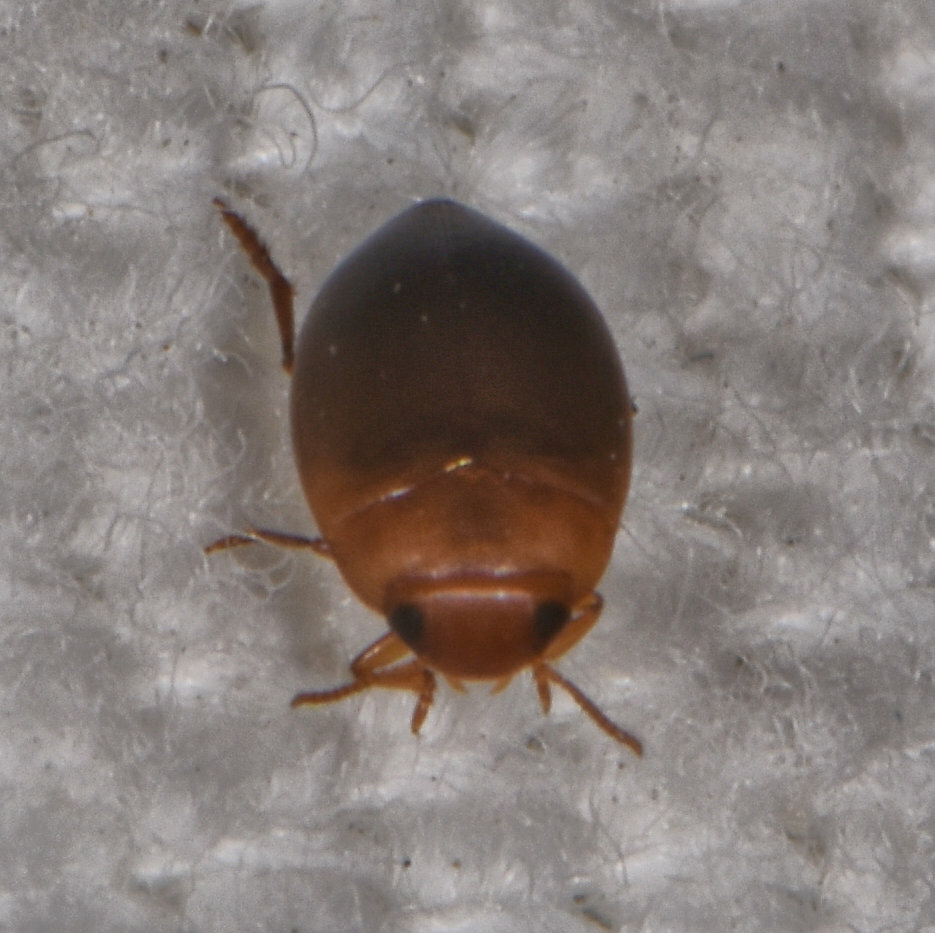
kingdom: Animalia
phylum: Arthropoda
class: Insecta
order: Coleoptera
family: Dytiscidae
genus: Clemnius
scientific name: Clemnius laccophilinus
